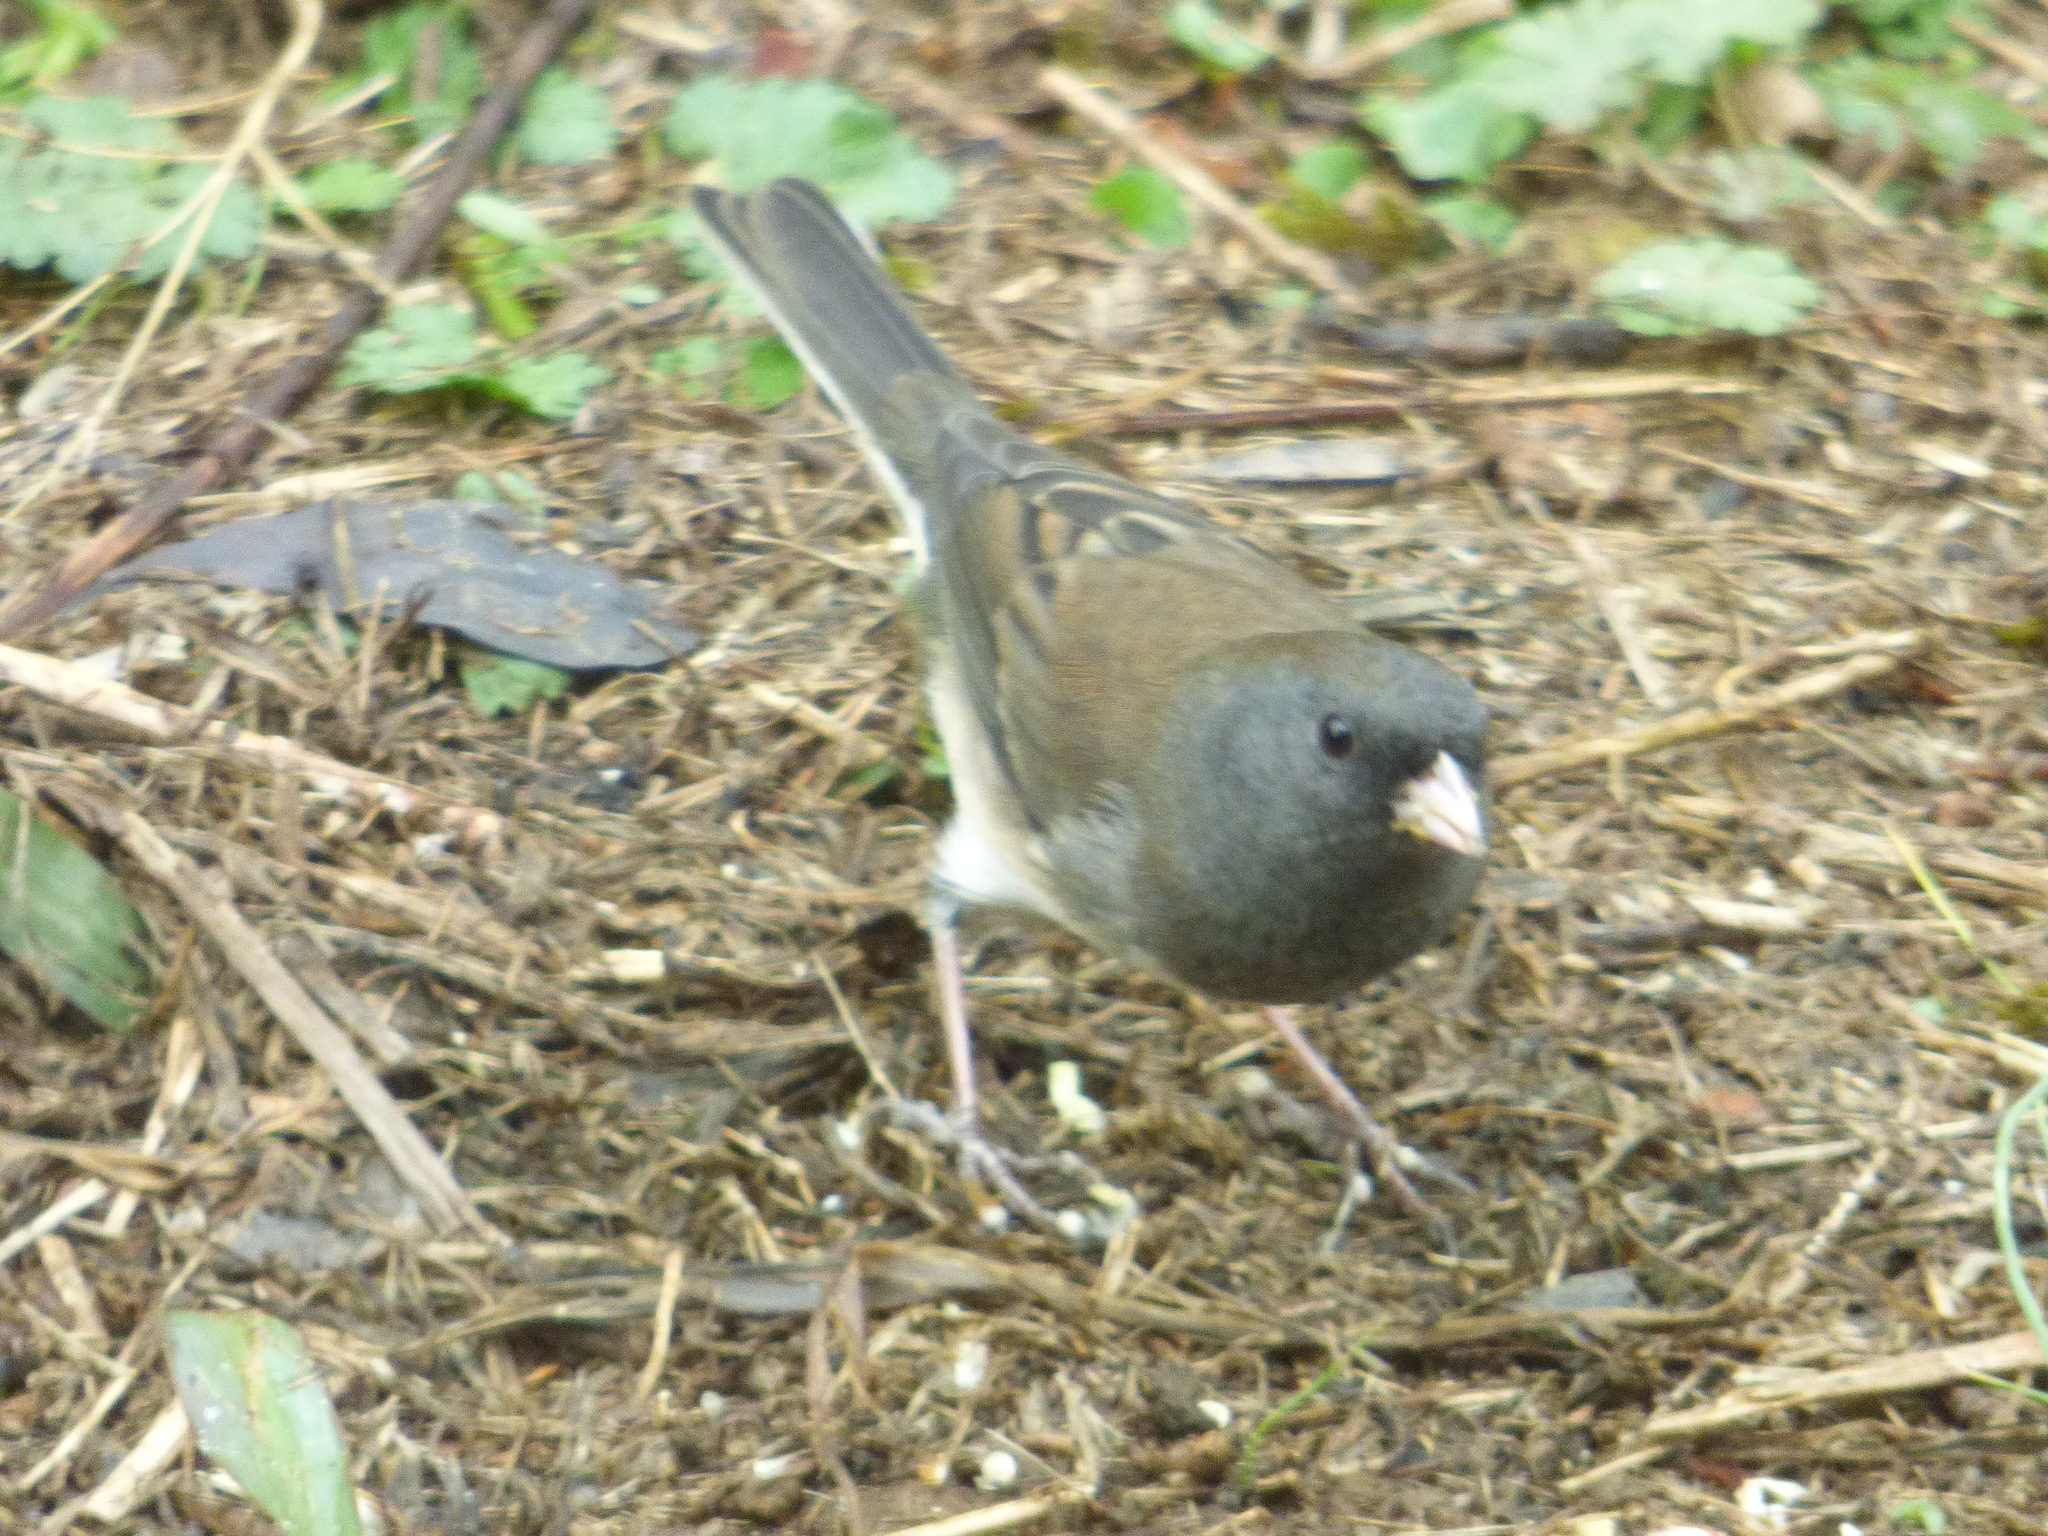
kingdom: Animalia
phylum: Chordata
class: Aves
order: Passeriformes
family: Passerellidae
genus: Junco
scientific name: Junco hyemalis
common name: Dark-eyed junco
